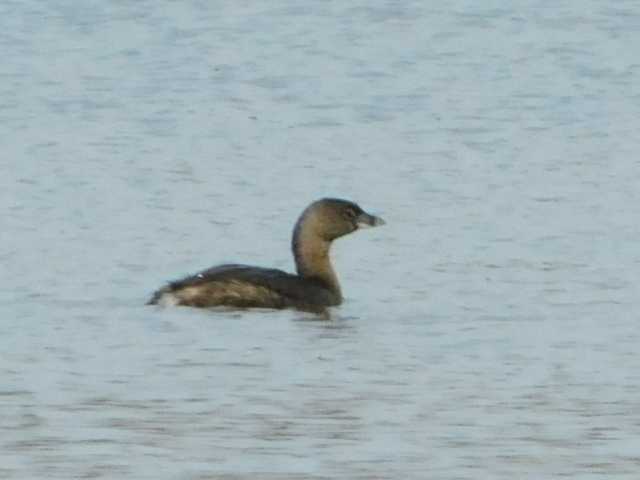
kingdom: Animalia
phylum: Chordata
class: Aves
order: Podicipediformes
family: Podicipedidae
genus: Podilymbus
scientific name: Podilymbus podiceps
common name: Pied-billed grebe
